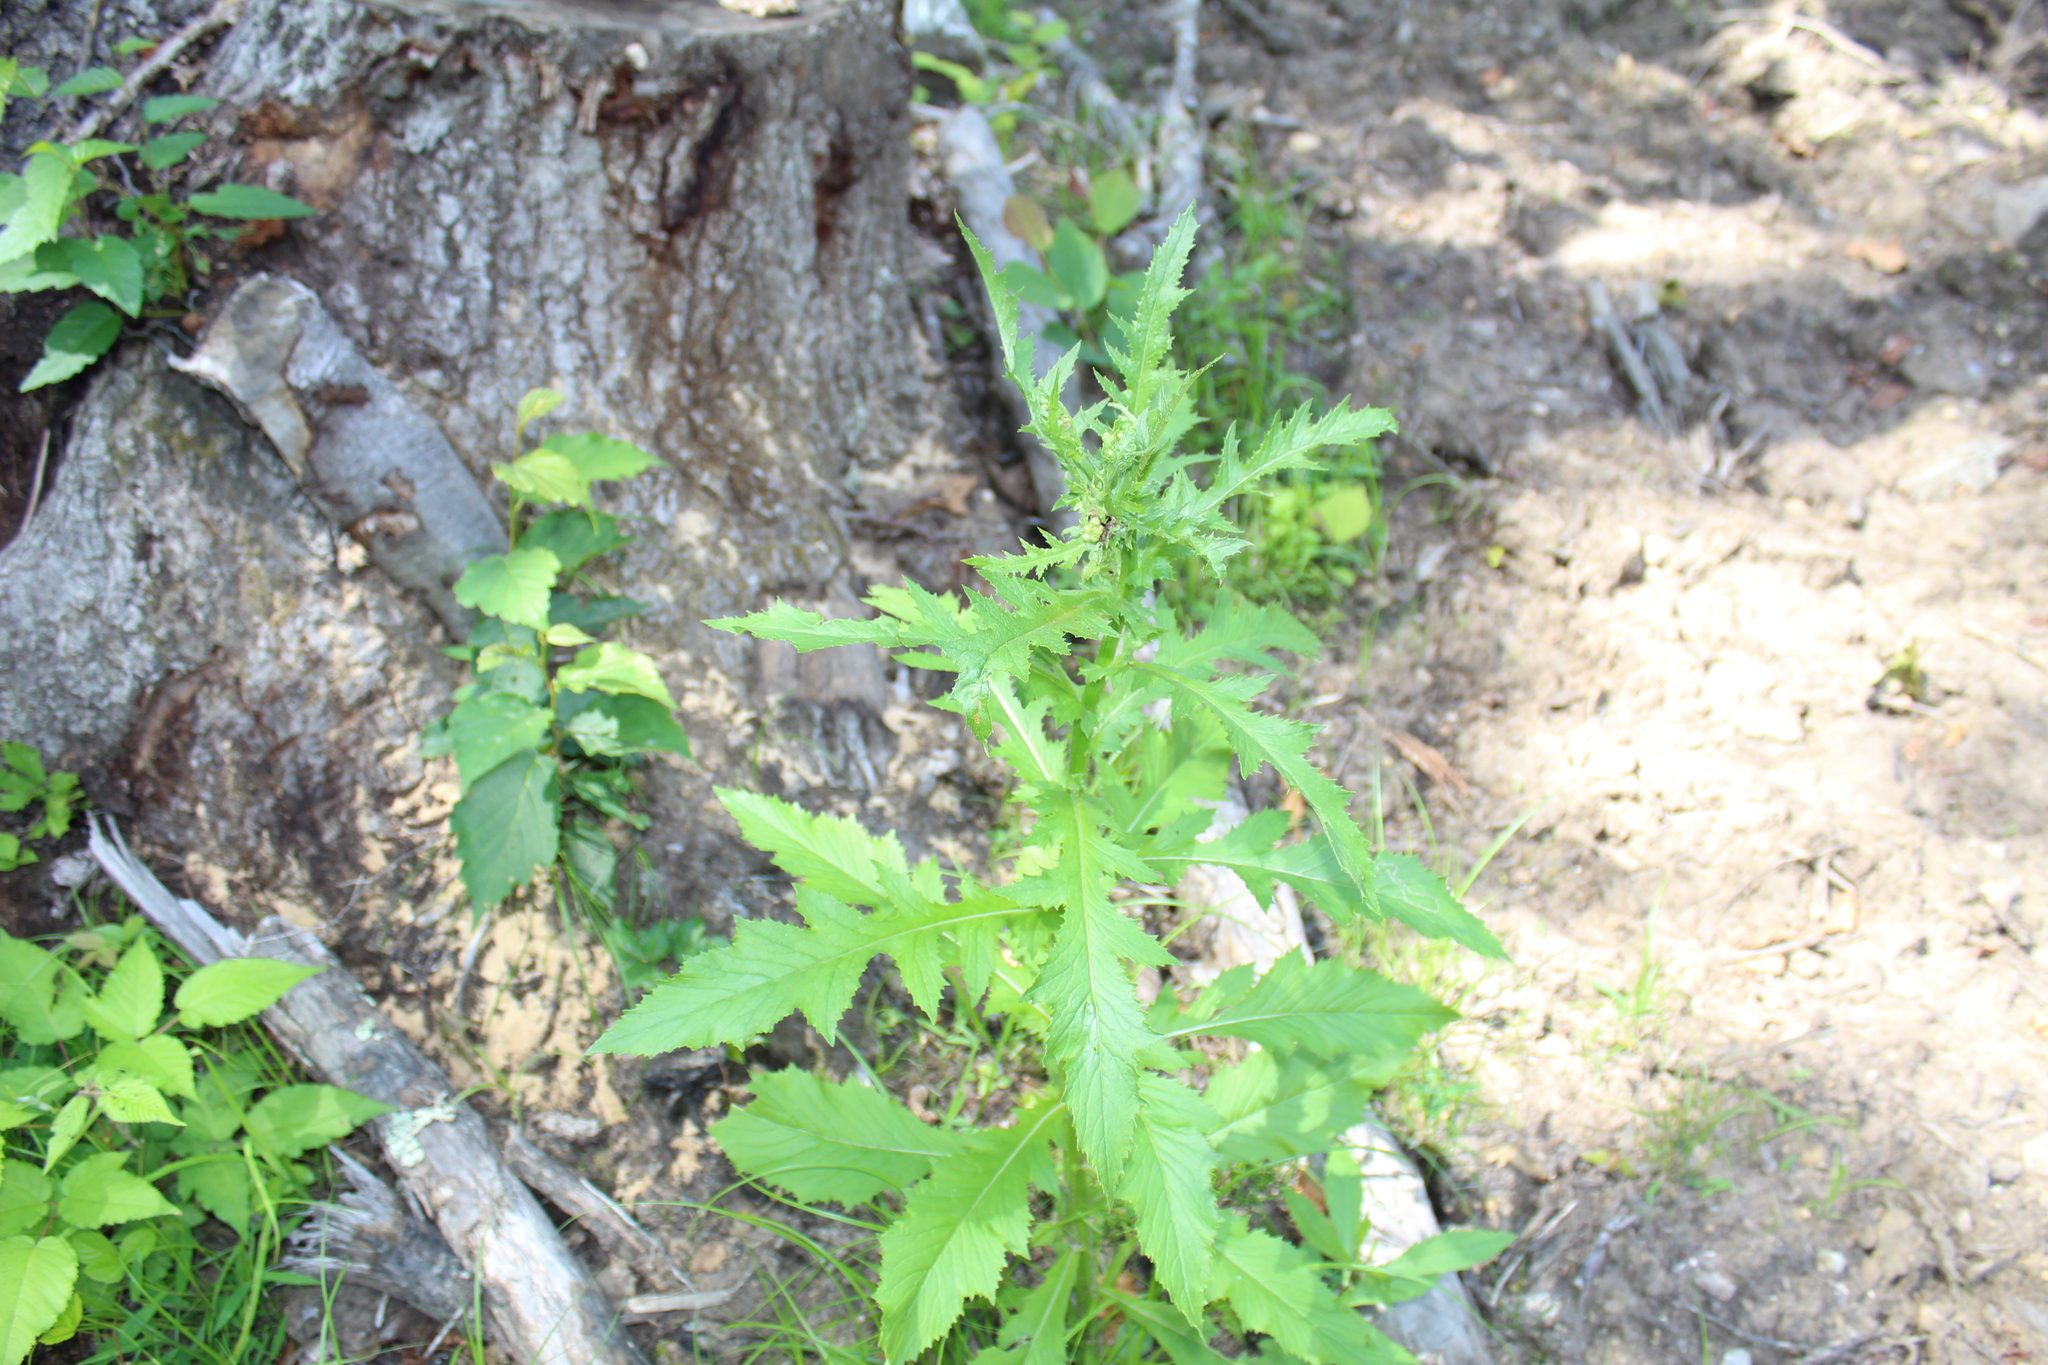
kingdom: Plantae
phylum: Tracheophyta
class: Magnoliopsida
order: Asterales
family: Asteraceae
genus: Erechtites
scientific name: Erechtites hieraciifolius
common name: American burnweed
